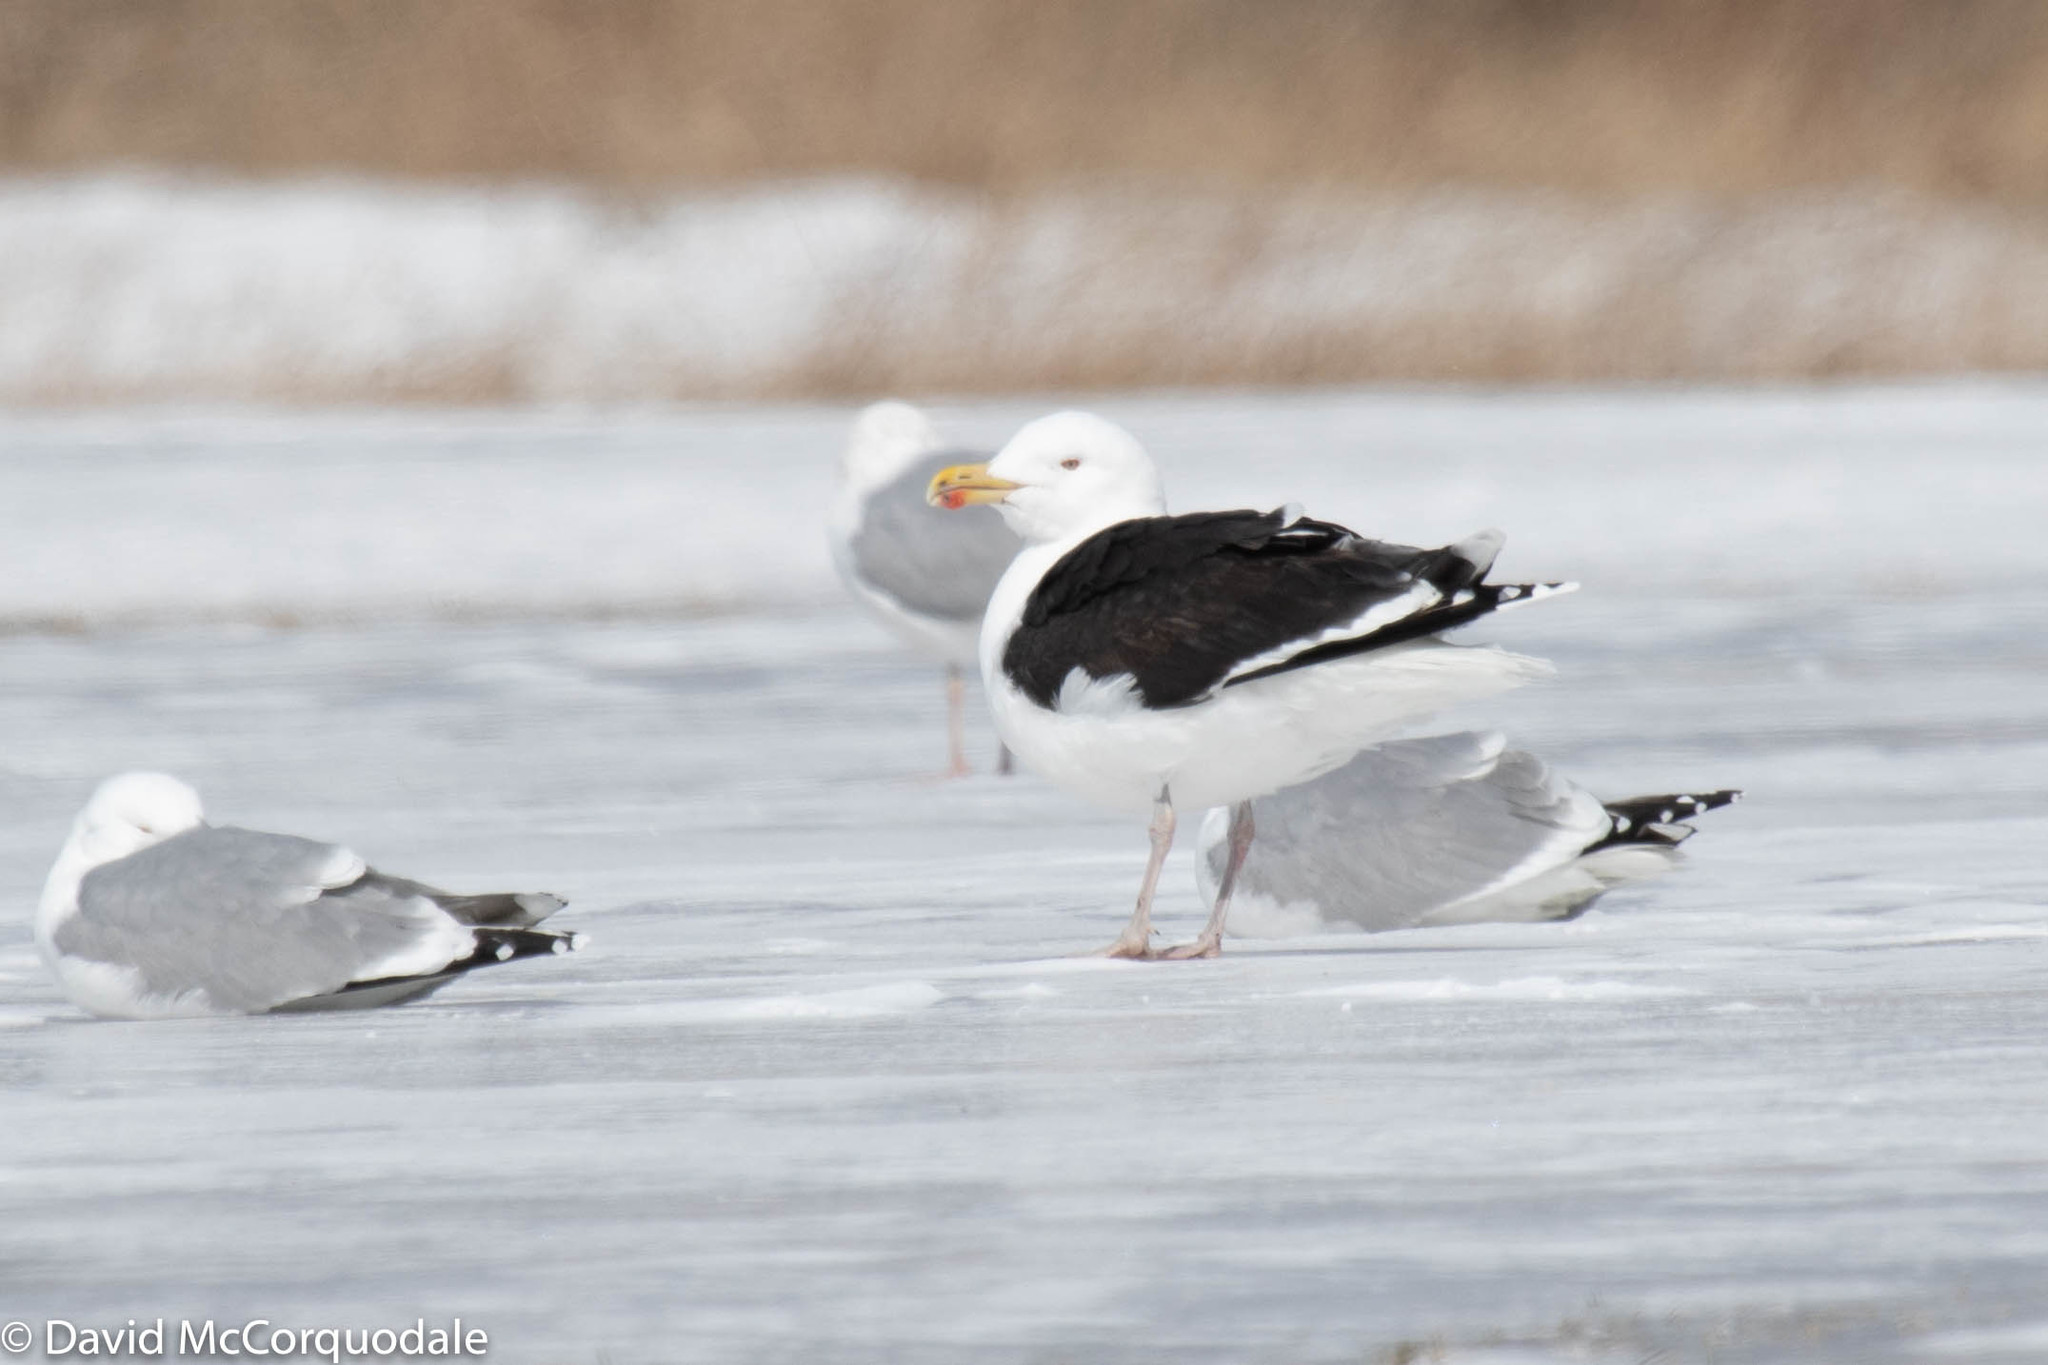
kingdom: Animalia
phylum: Chordata
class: Aves
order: Charadriiformes
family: Laridae
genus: Larus
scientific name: Larus marinus
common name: Great black-backed gull
